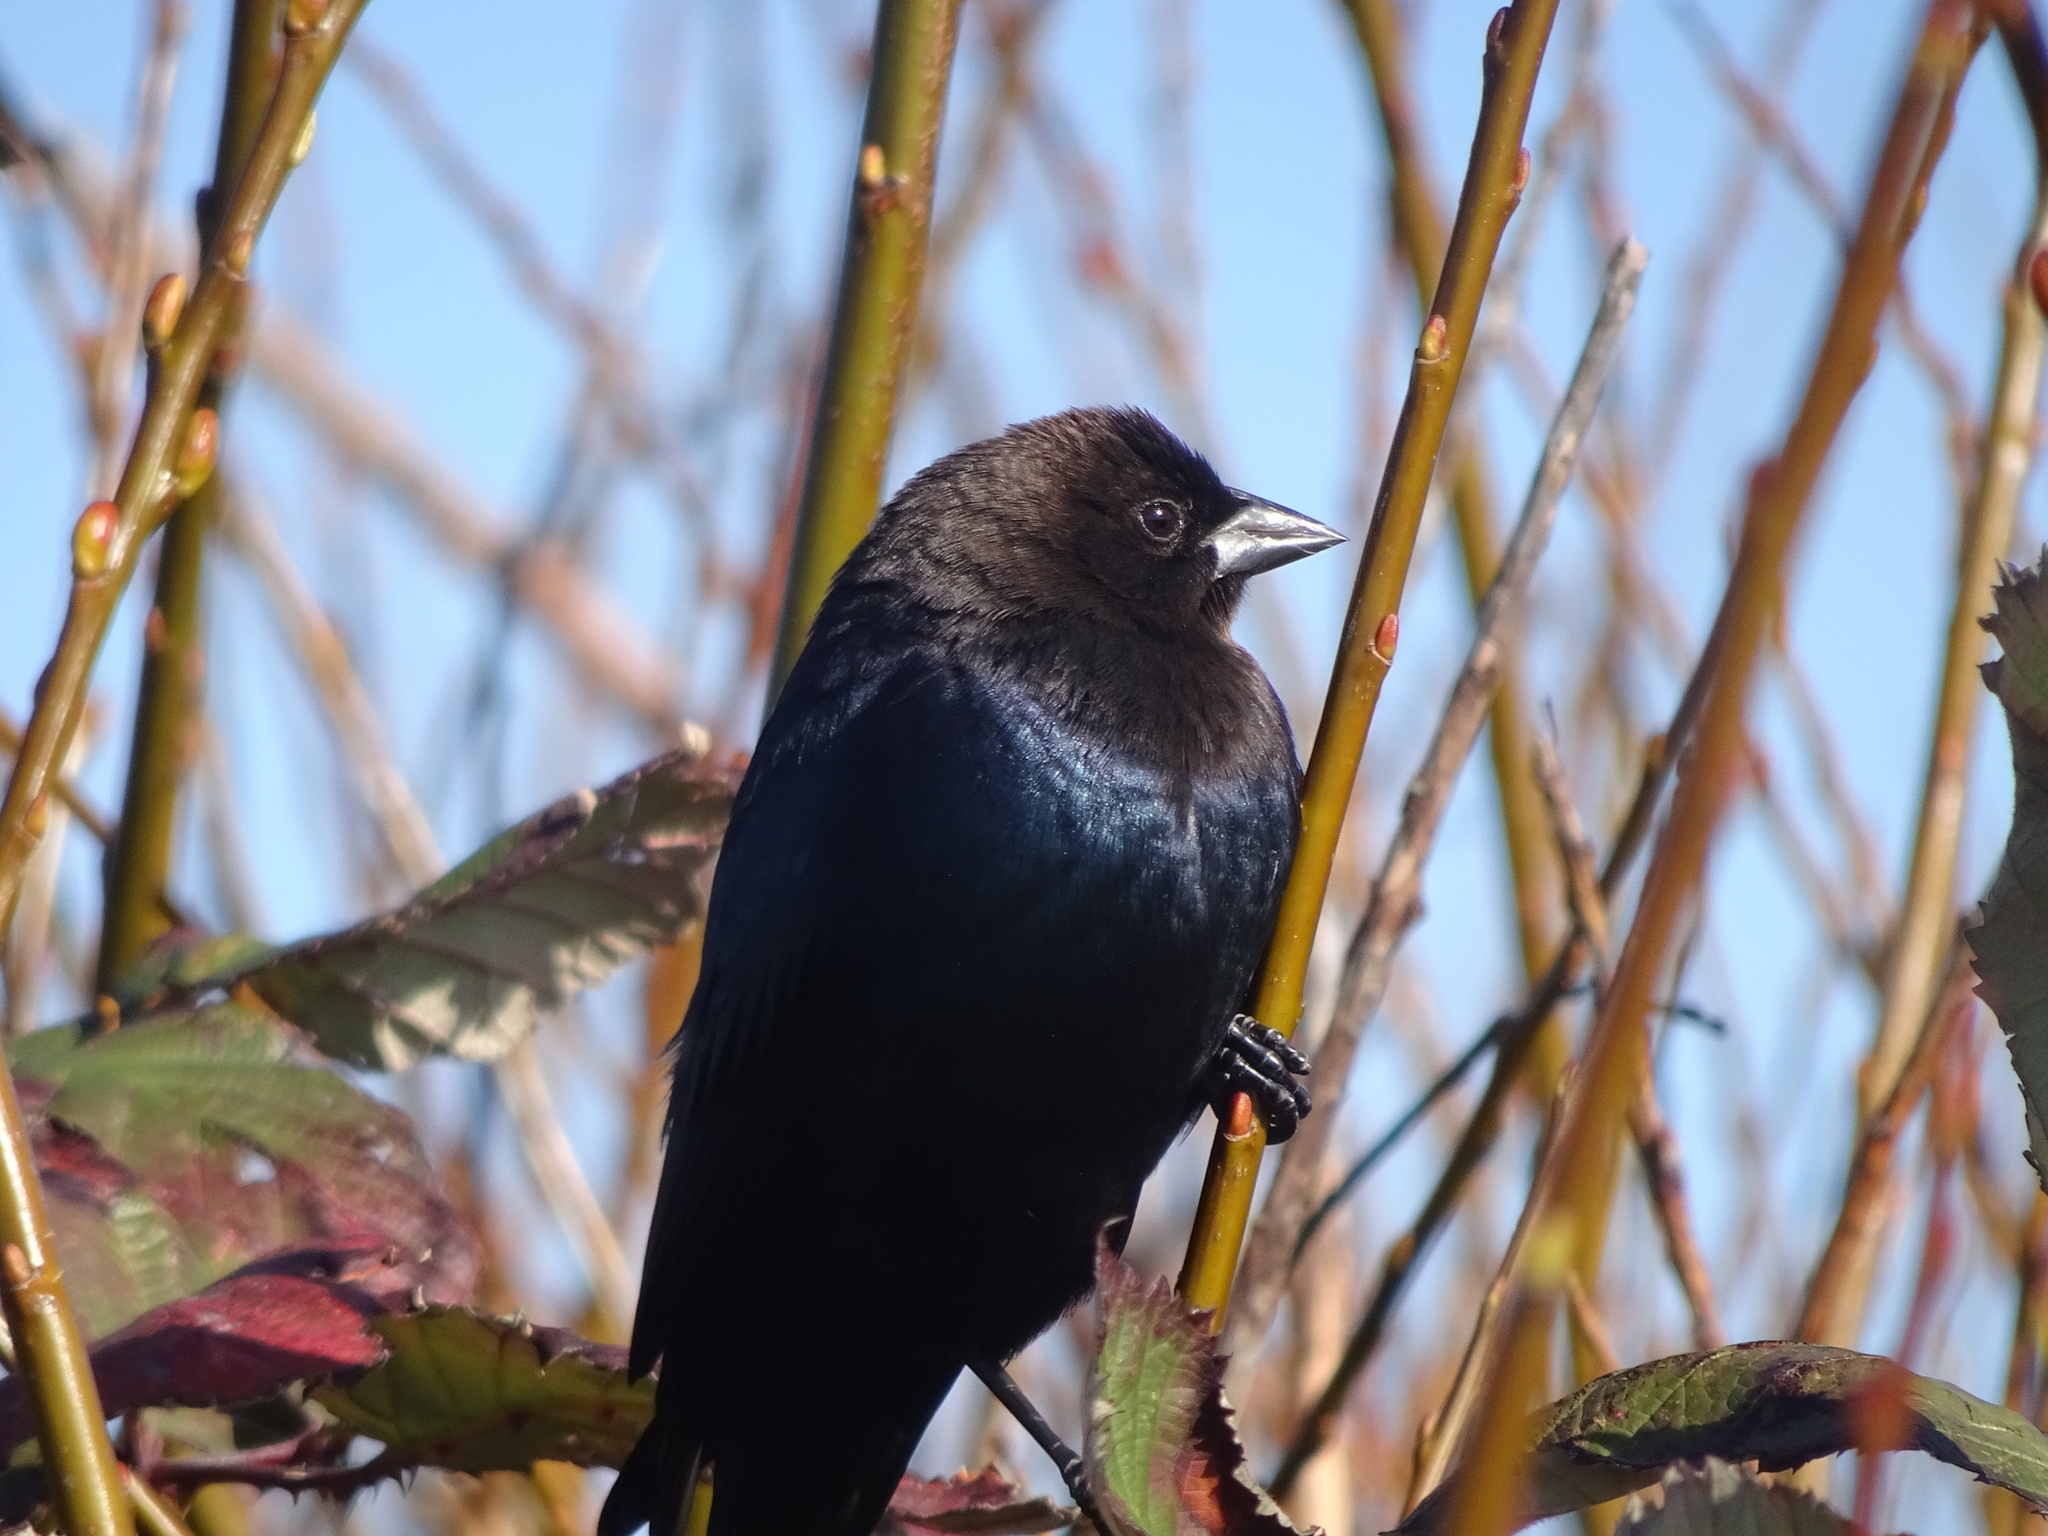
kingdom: Animalia
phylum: Chordata
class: Aves
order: Passeriformes
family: Icteridae
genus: Molothrus
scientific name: Molothrus ater
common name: Brown-headed cowbird
